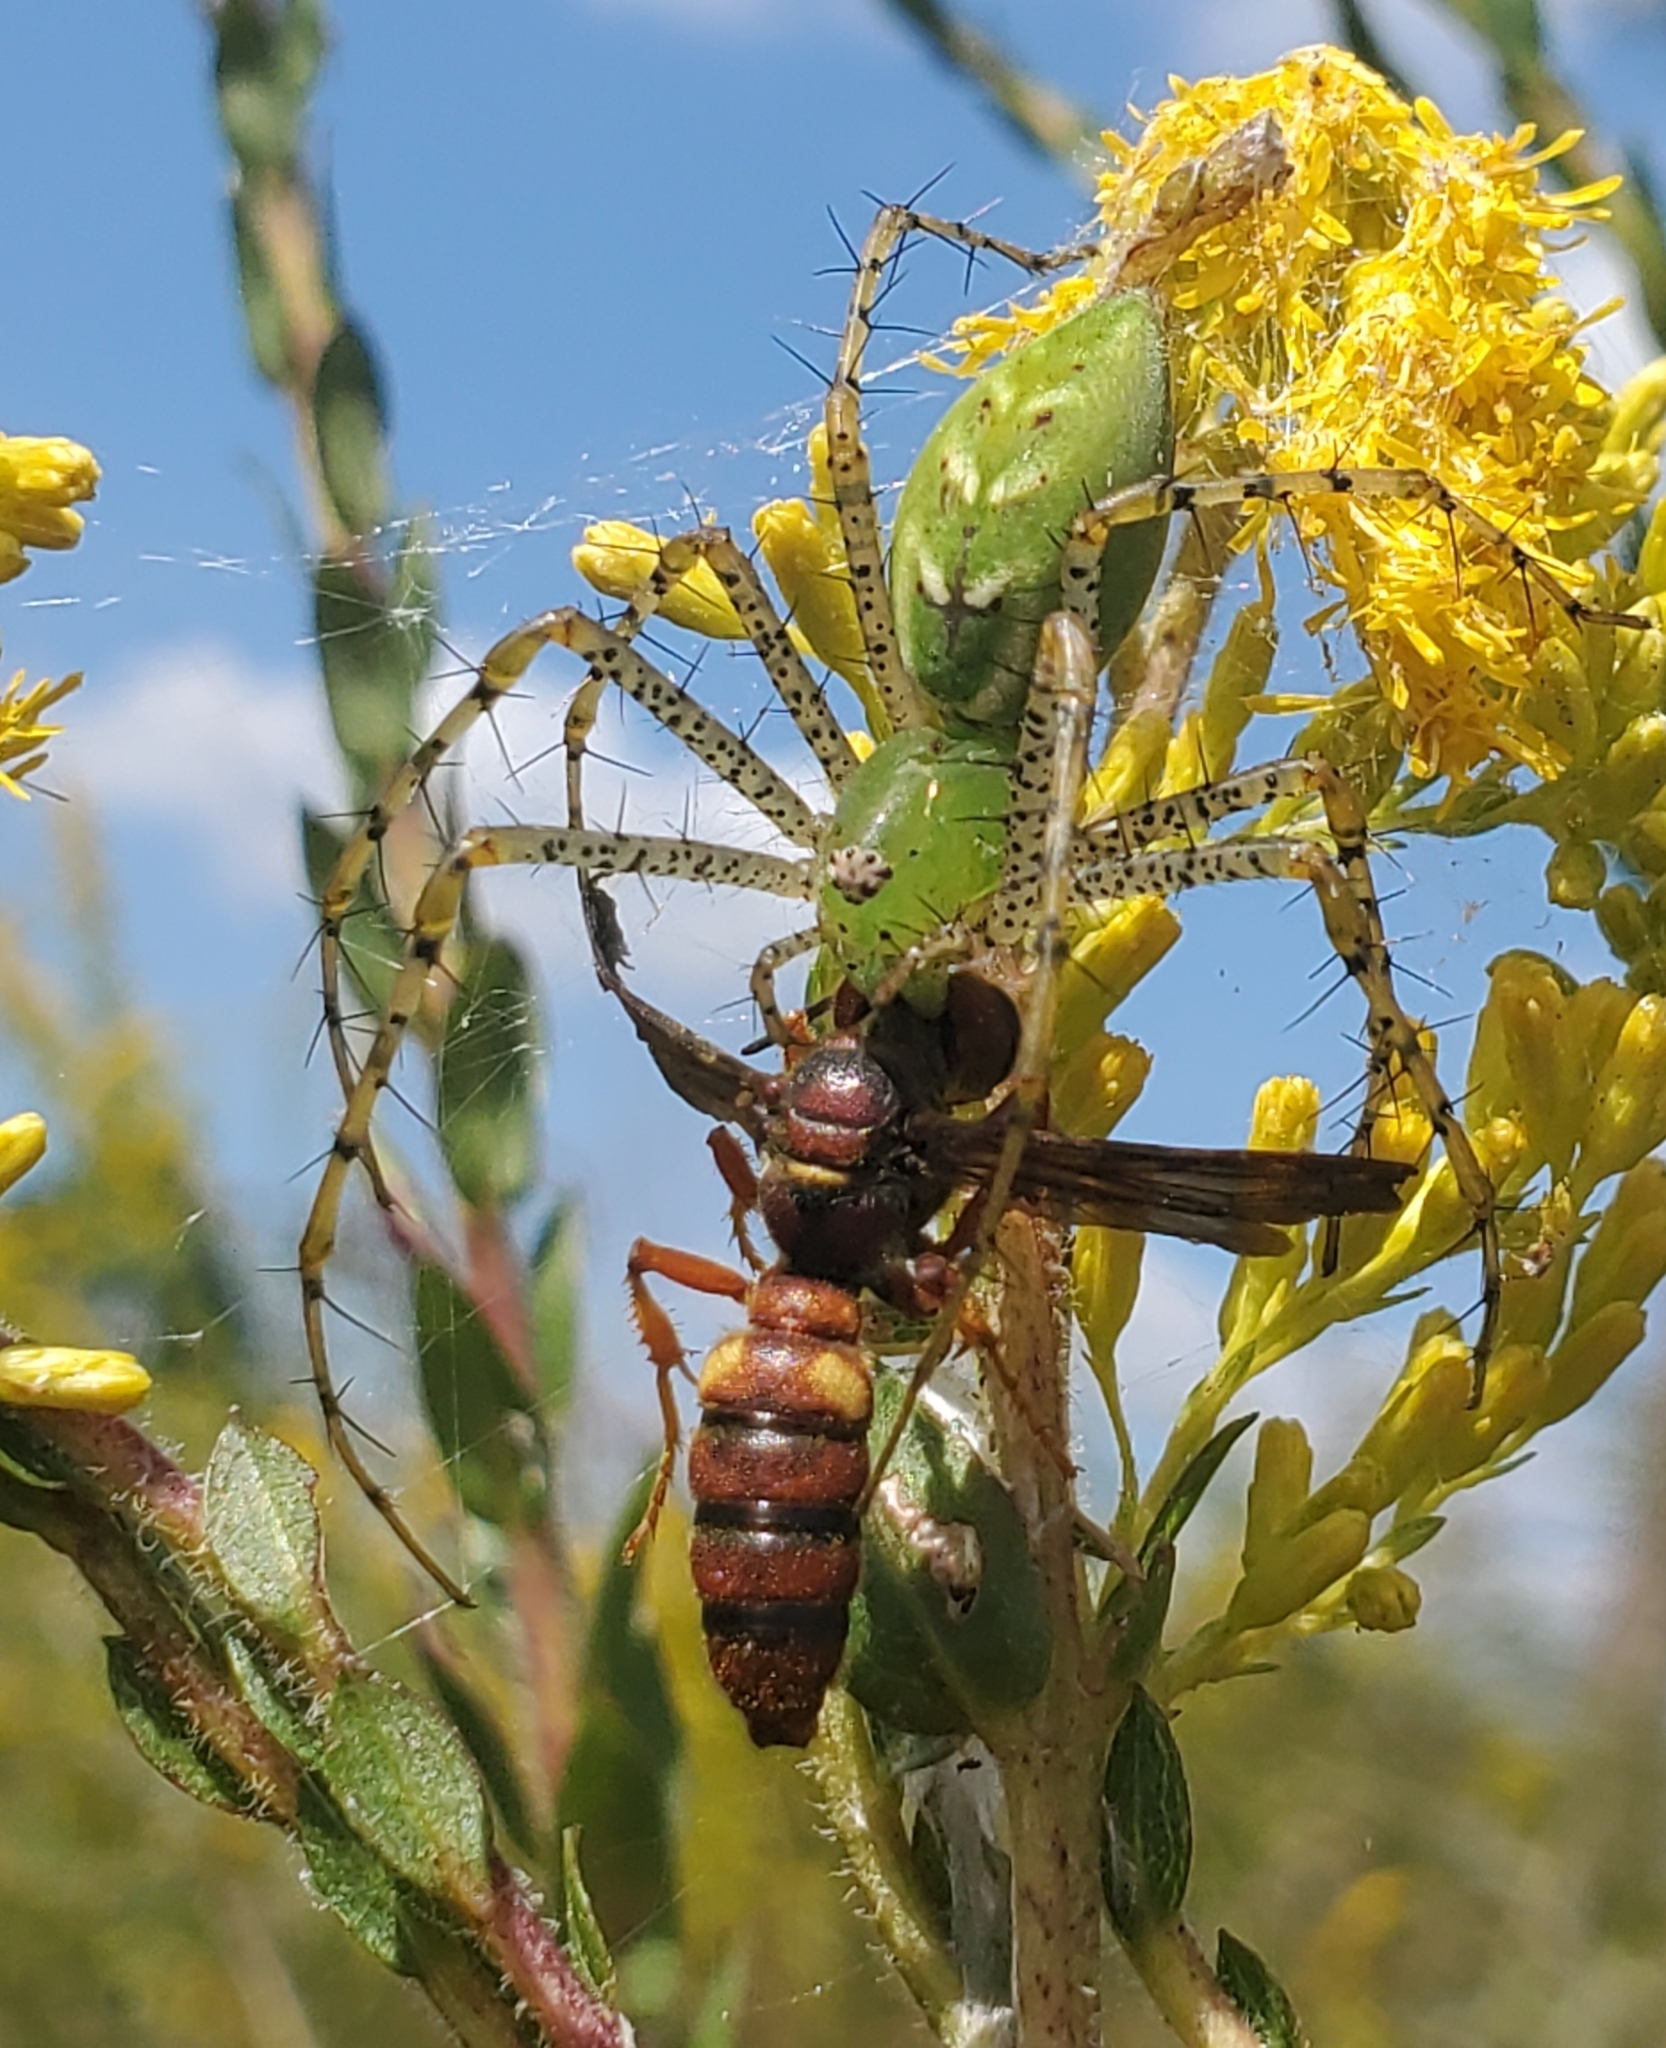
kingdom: Animalia
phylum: Arthropoda
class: Arachnida
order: Araneae
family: Oxyopidae
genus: Peucetia
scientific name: Peucetia viridans
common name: Lynx spiders
